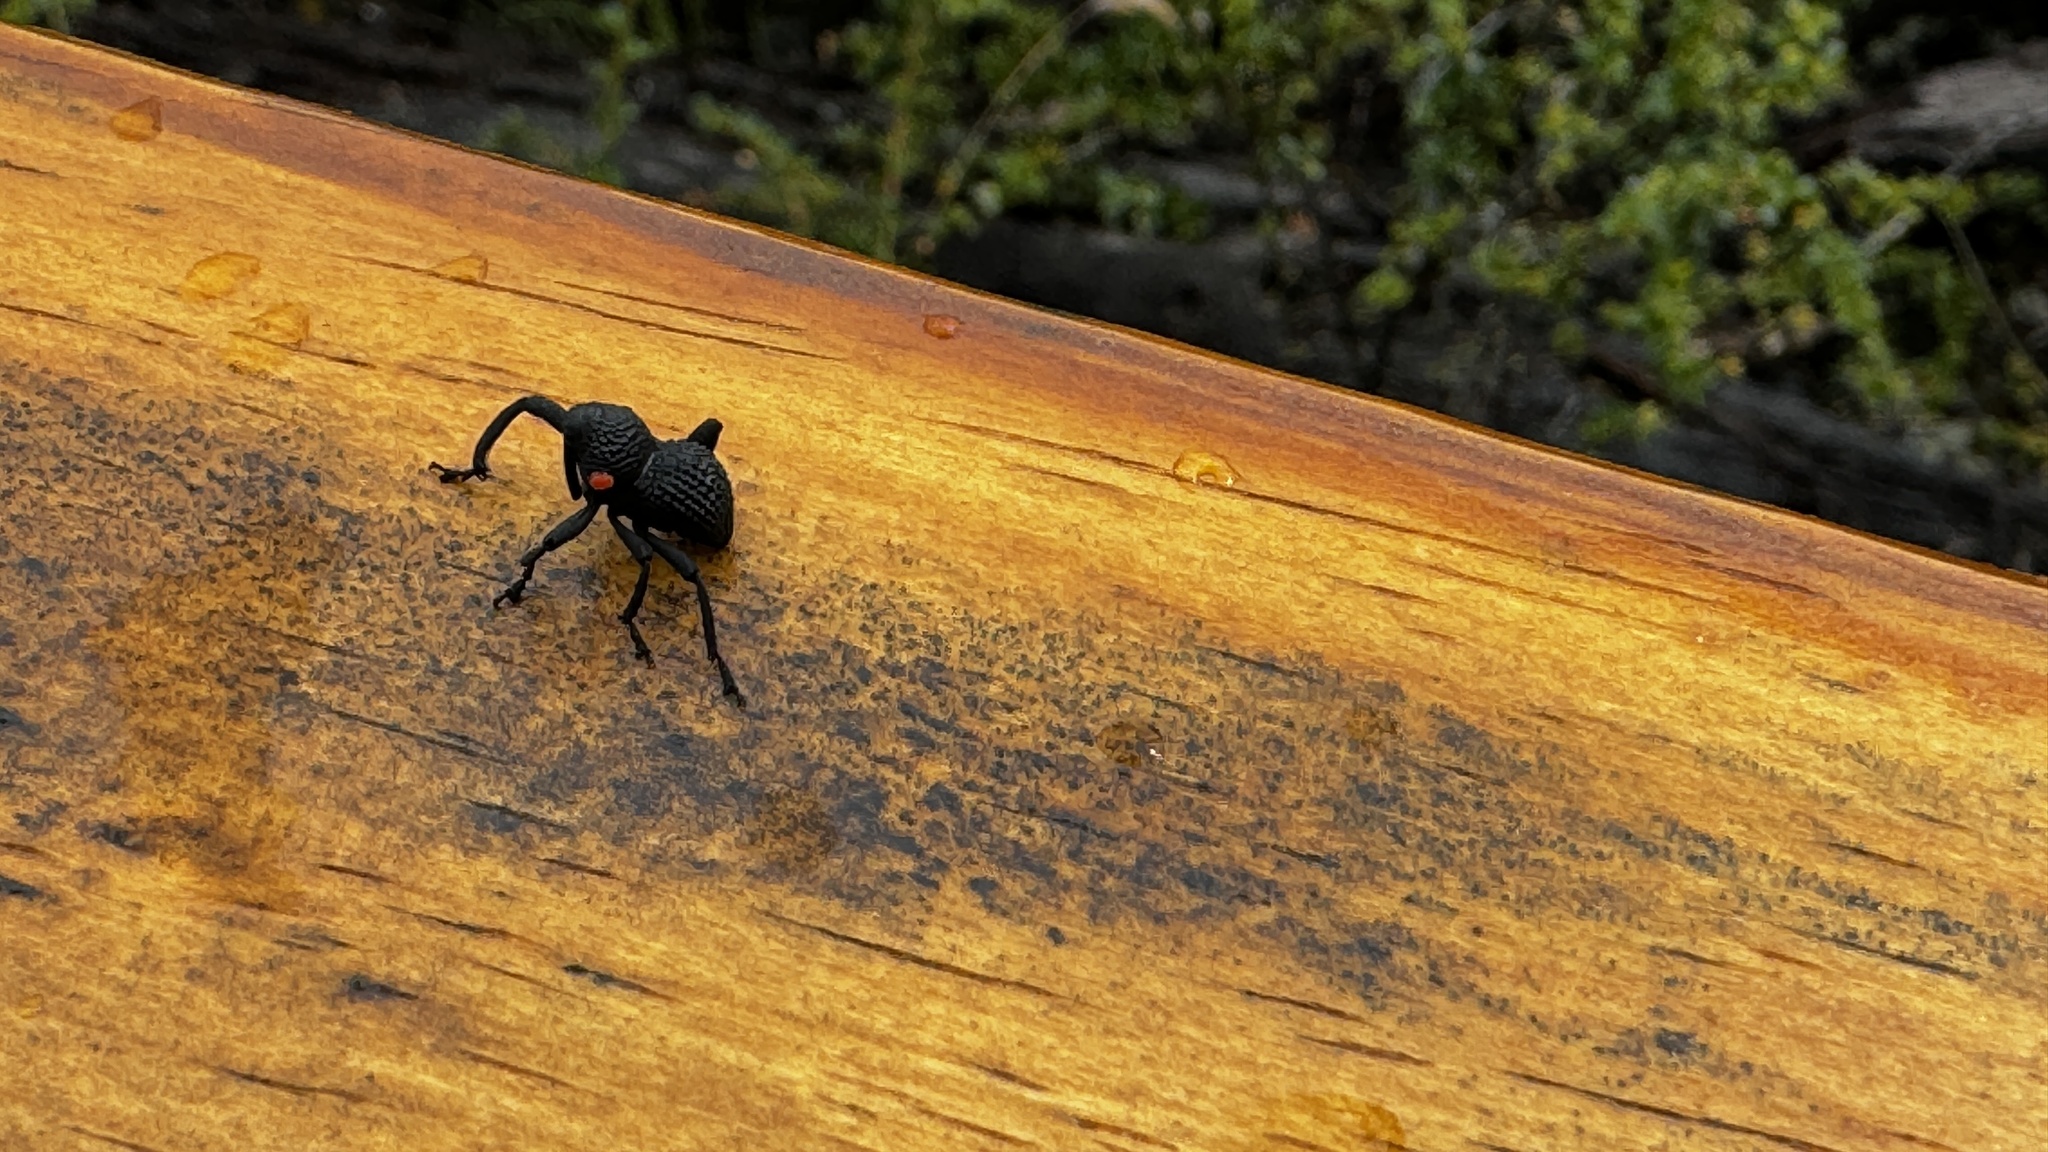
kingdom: Animalia
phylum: Arthropoda
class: Insecta
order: Coleoptera
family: Curculionidae
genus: Rhyephenes
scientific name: Rhyephenes maillei
